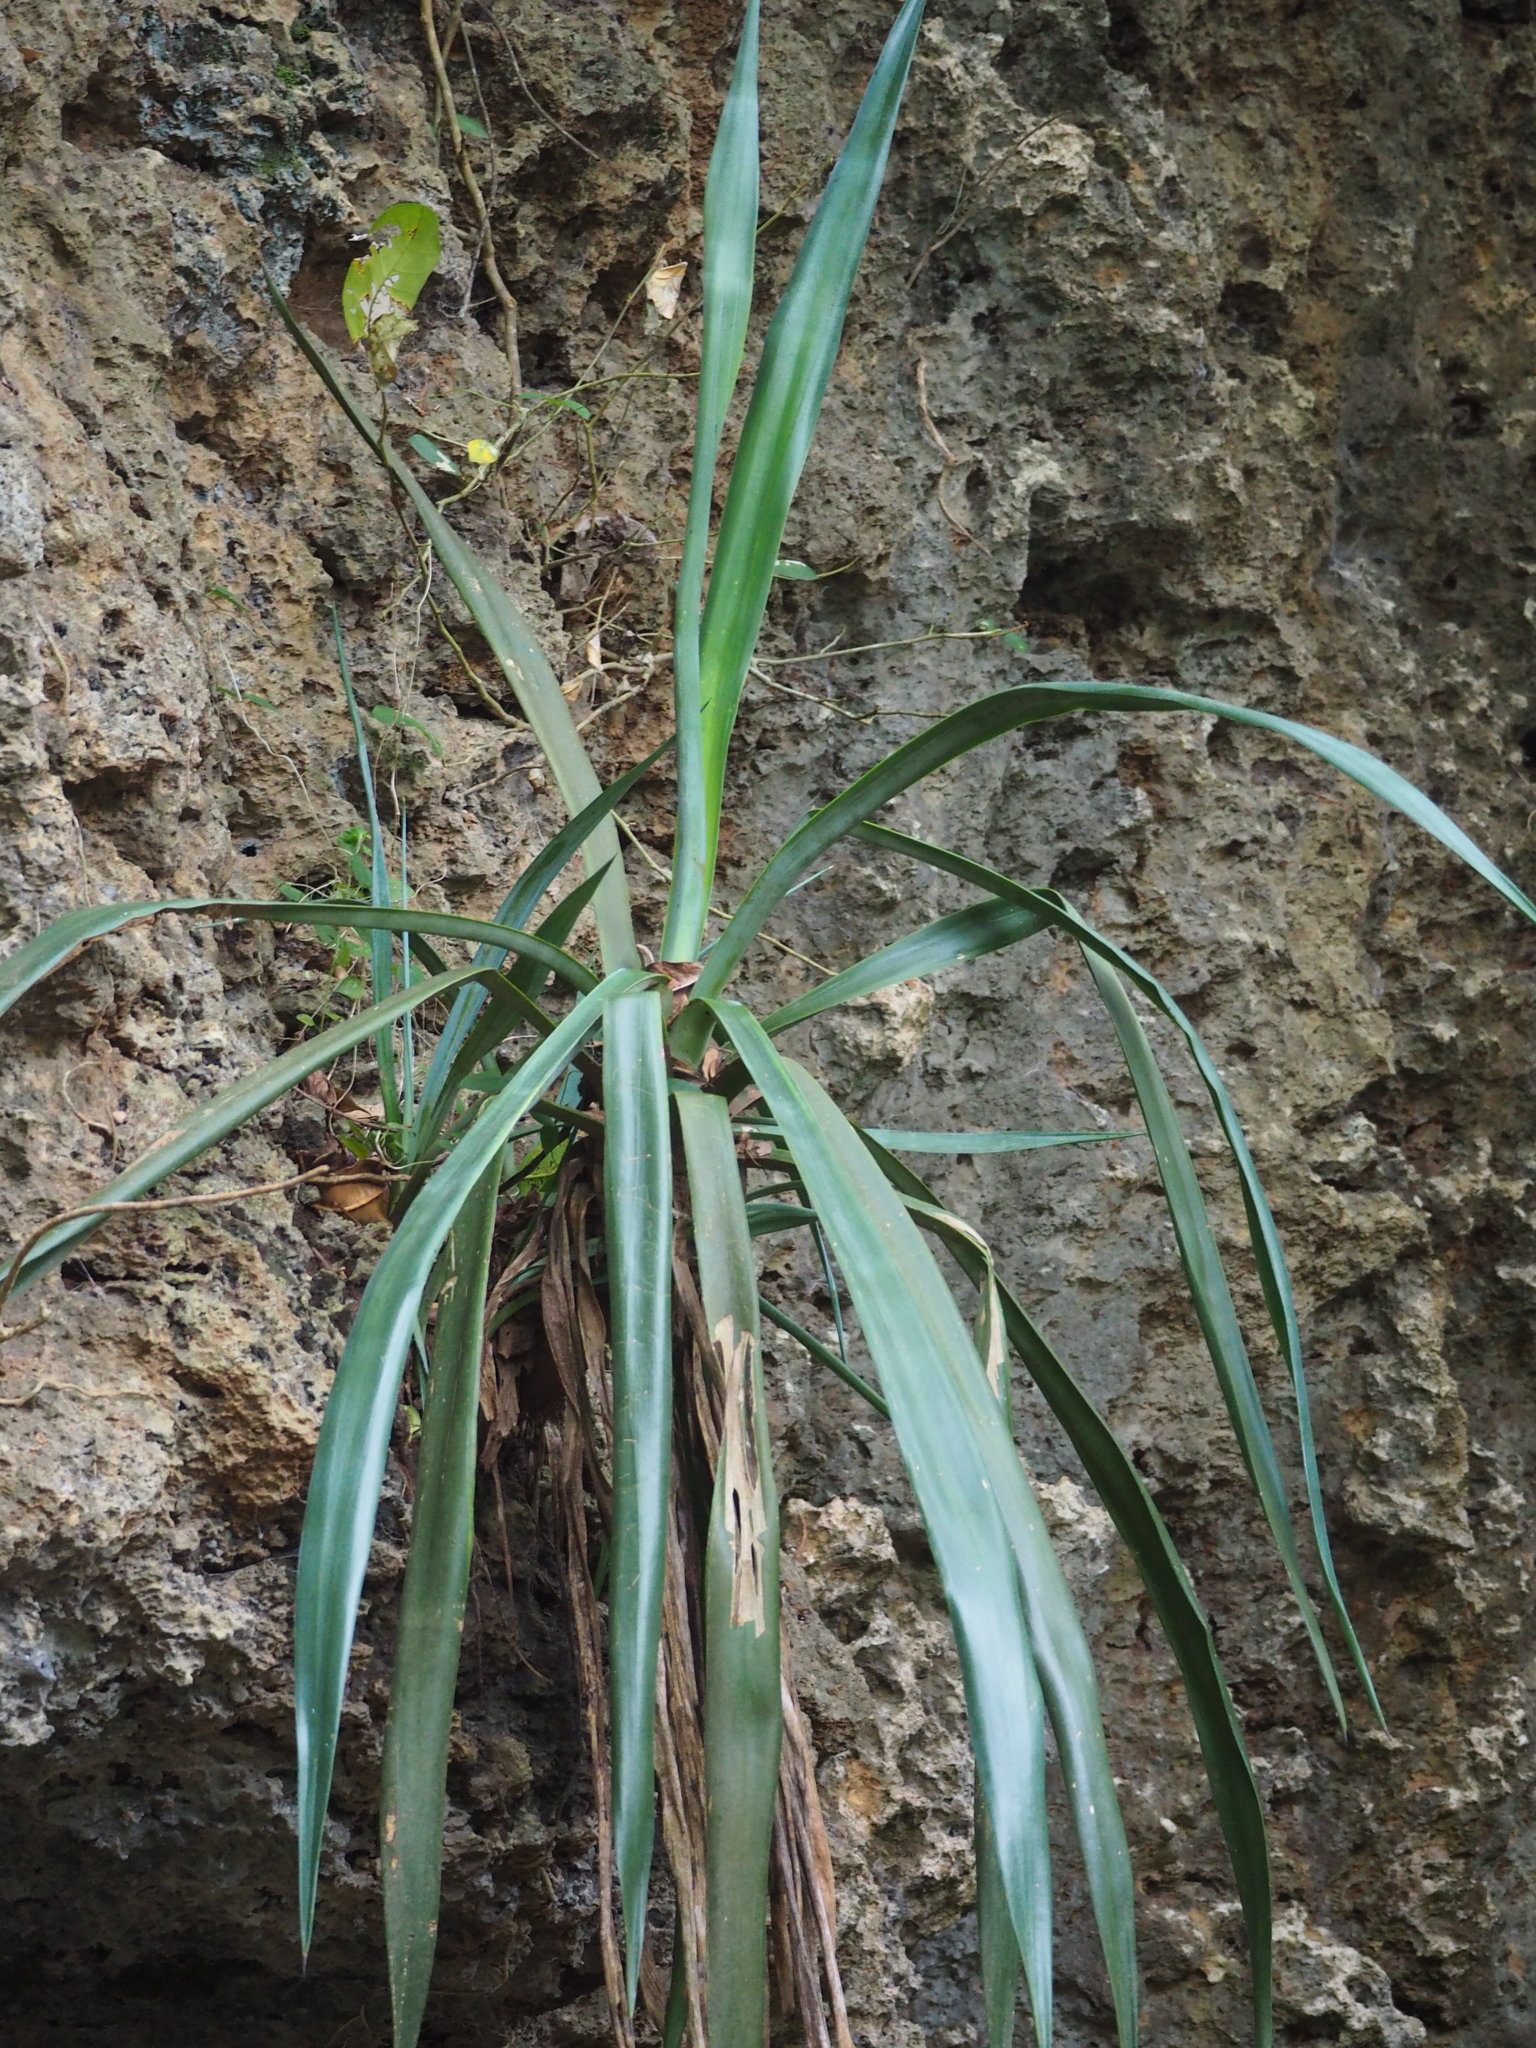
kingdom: Plantae
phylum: Tracheophyta
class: Liliopsida
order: Asparagales
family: Asparagaceae
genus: Agave
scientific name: Agave sisalana
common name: Sisal hemp
